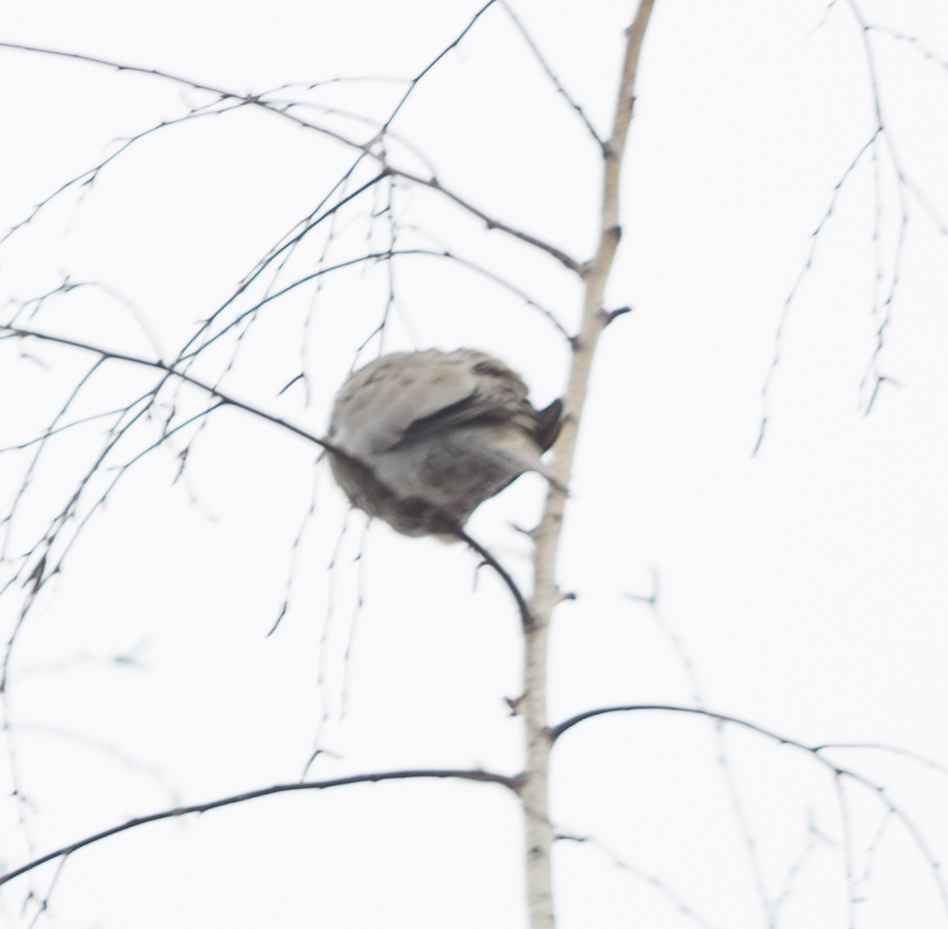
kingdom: Animalia
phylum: Chordata
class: Aves
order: Columbiformes
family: Columbidae
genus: Streptopelia
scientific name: Streptopelia decaocto
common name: Eurasian collared dove
